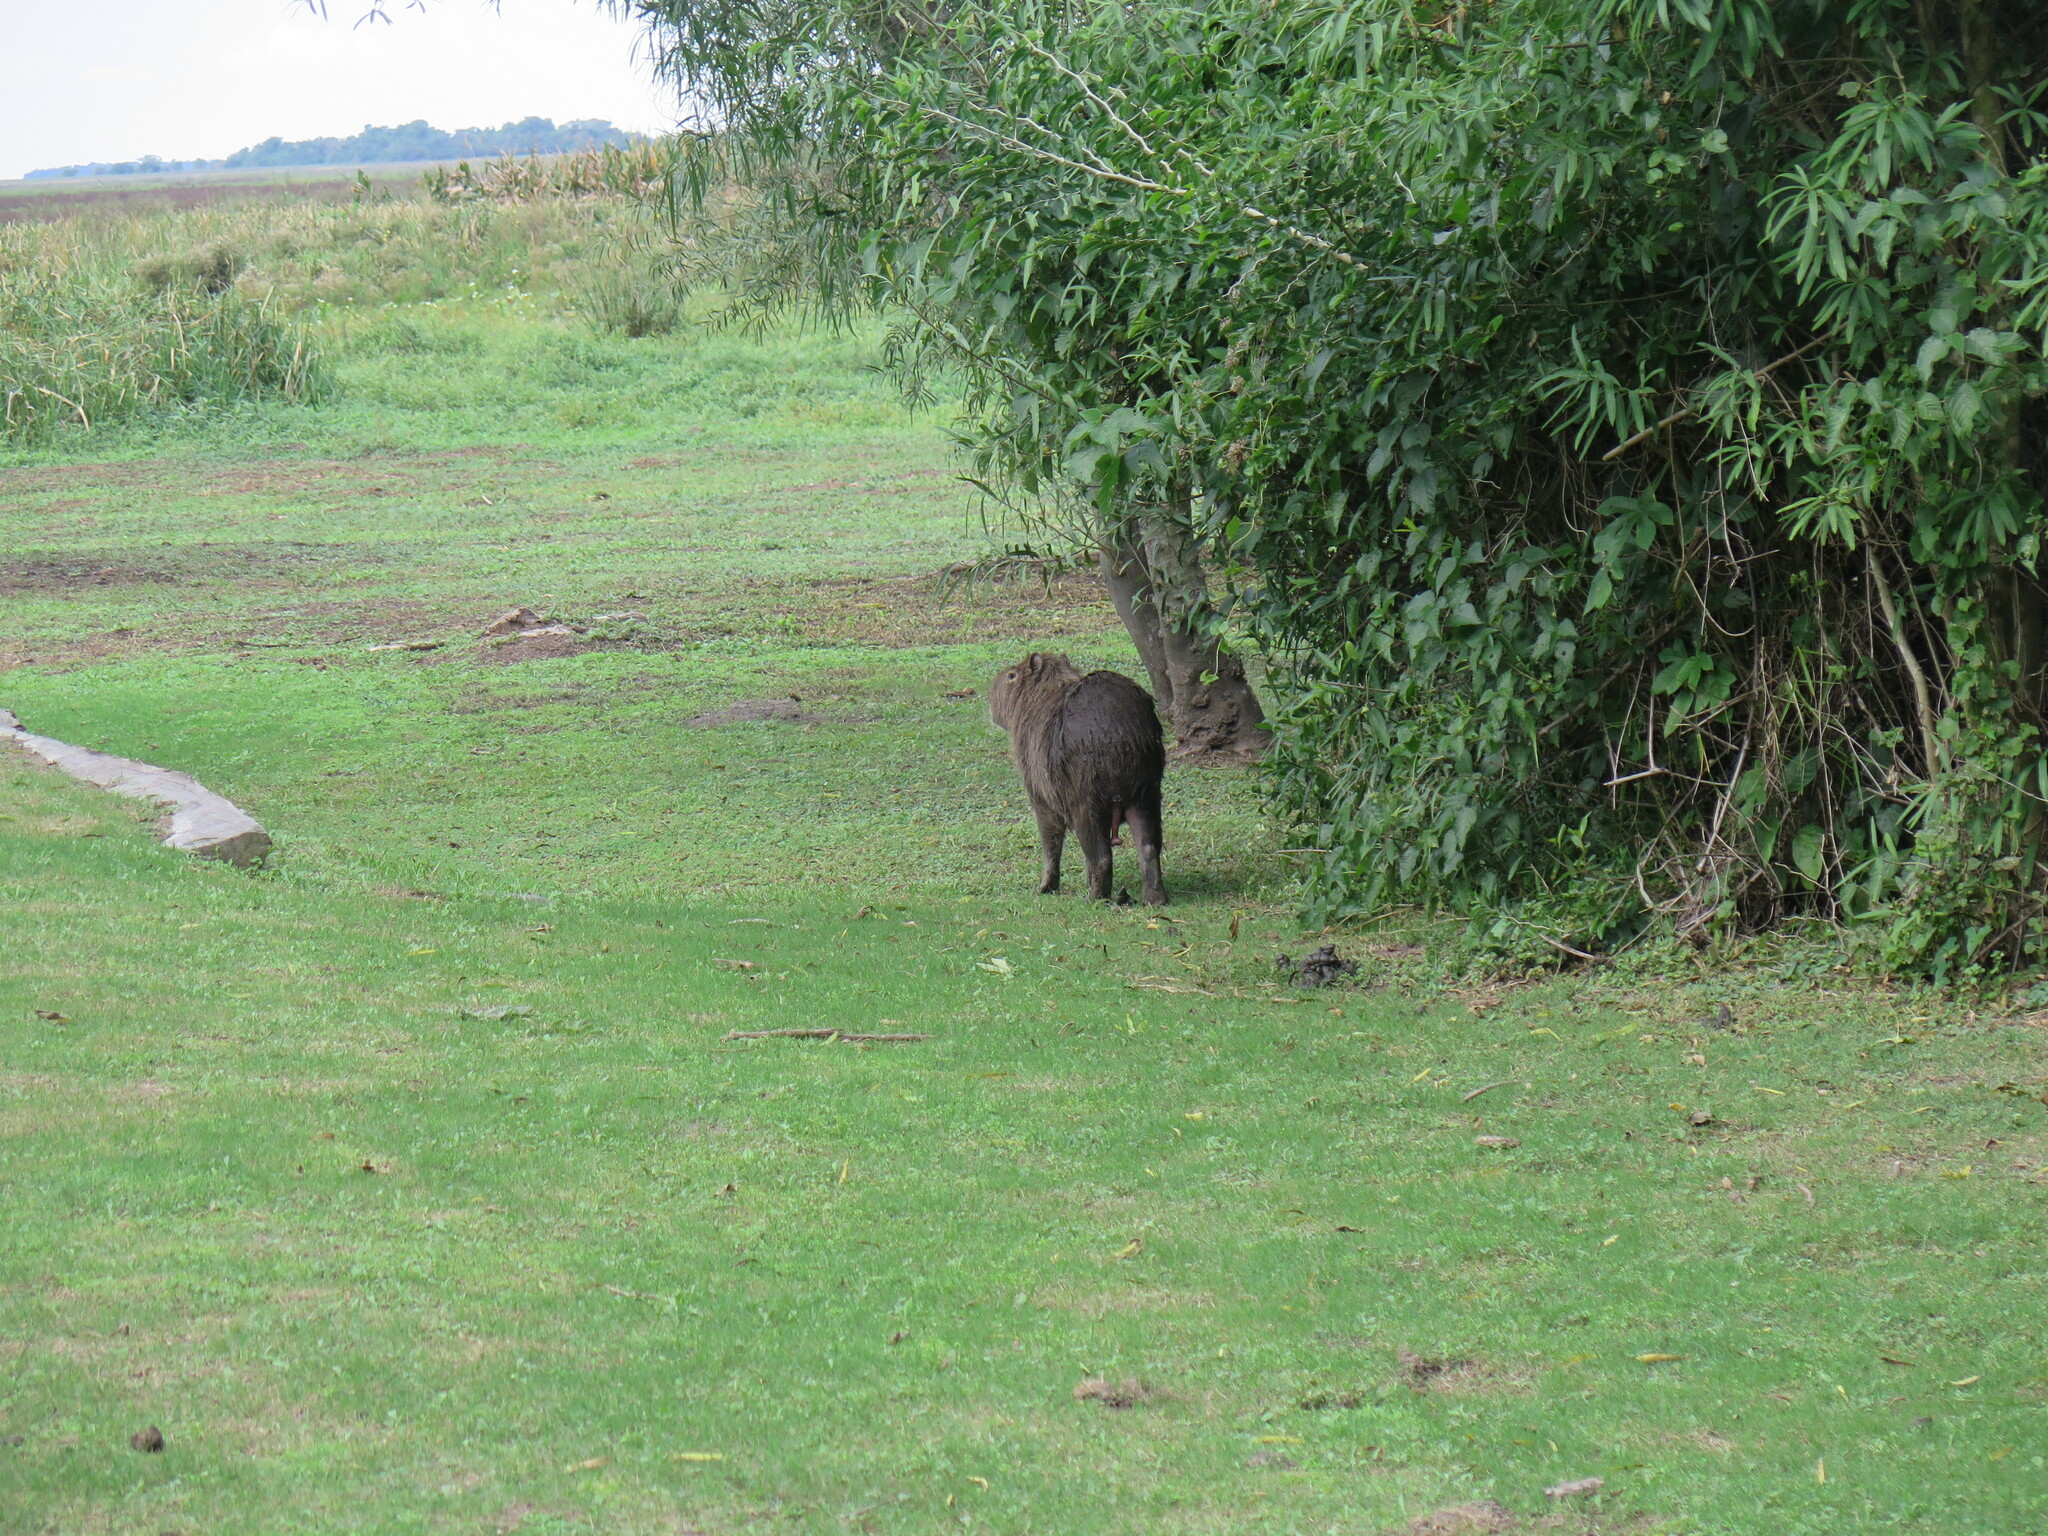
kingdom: Animalia
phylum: Chordata
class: Mammalia
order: Rodentia
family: Caviidae
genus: Hydrochoerus
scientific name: Hydrochoerus hydrochaeris
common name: Capybara
